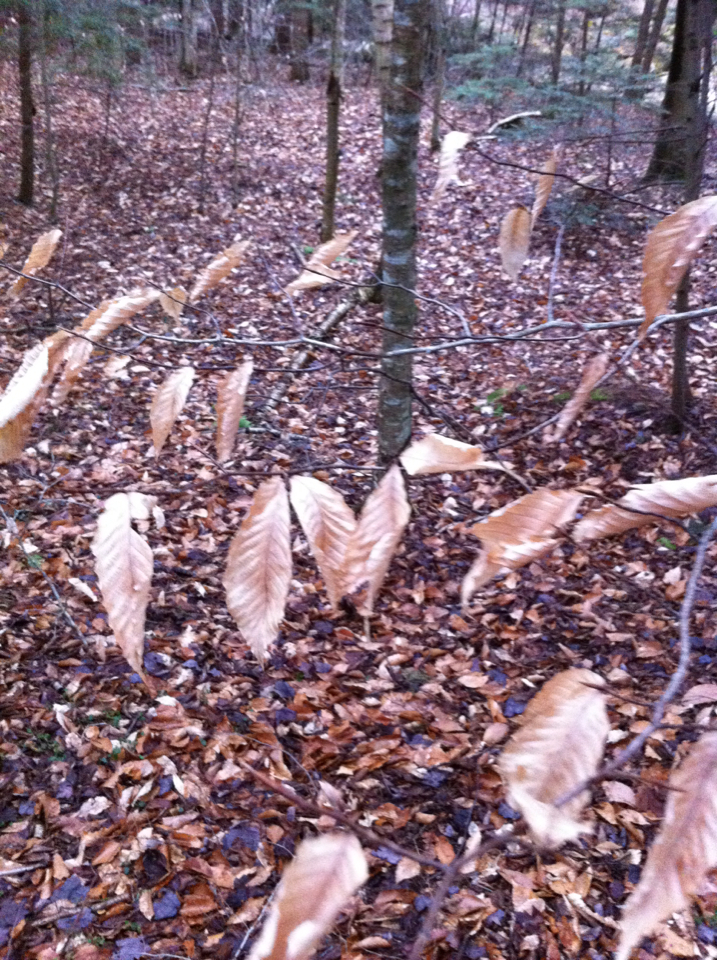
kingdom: Plantae
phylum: Tracheophyta
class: Magnoliopsida
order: Fagales
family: Fagaceae
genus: Fagus
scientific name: Fagus grandifolia
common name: American beech
